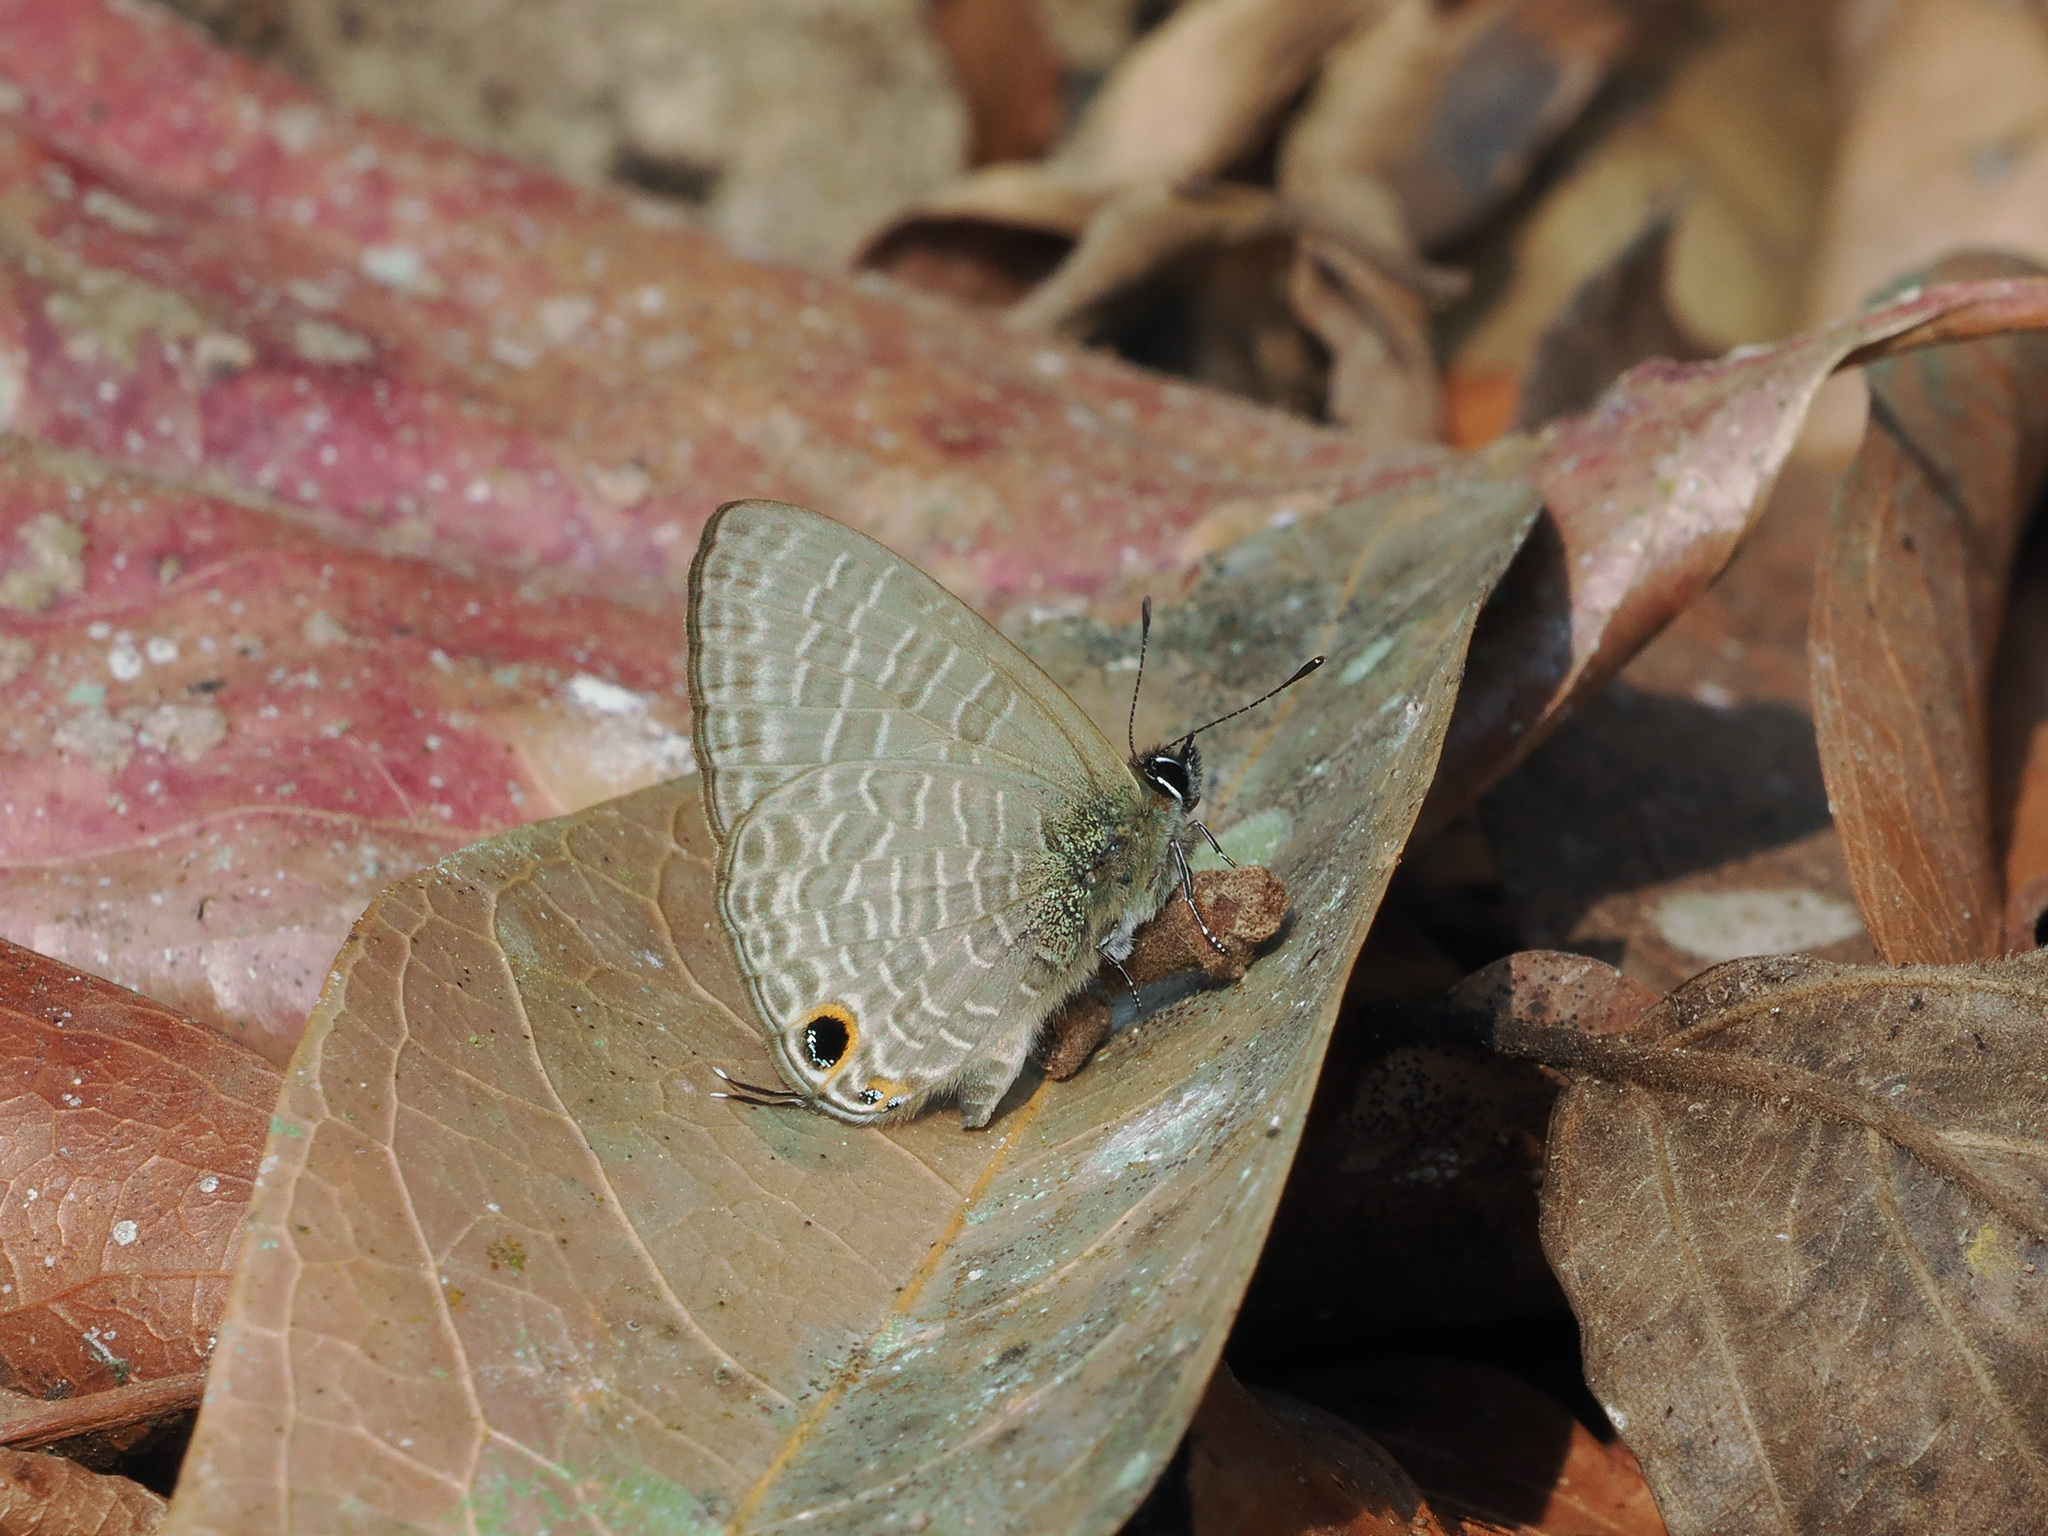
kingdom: Animalia
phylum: Arthropoda
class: Insecta
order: Lepidoptera
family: Lycaenidae
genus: Nacaduba
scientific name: Nacaduba beroe
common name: Opaque sixline blue
